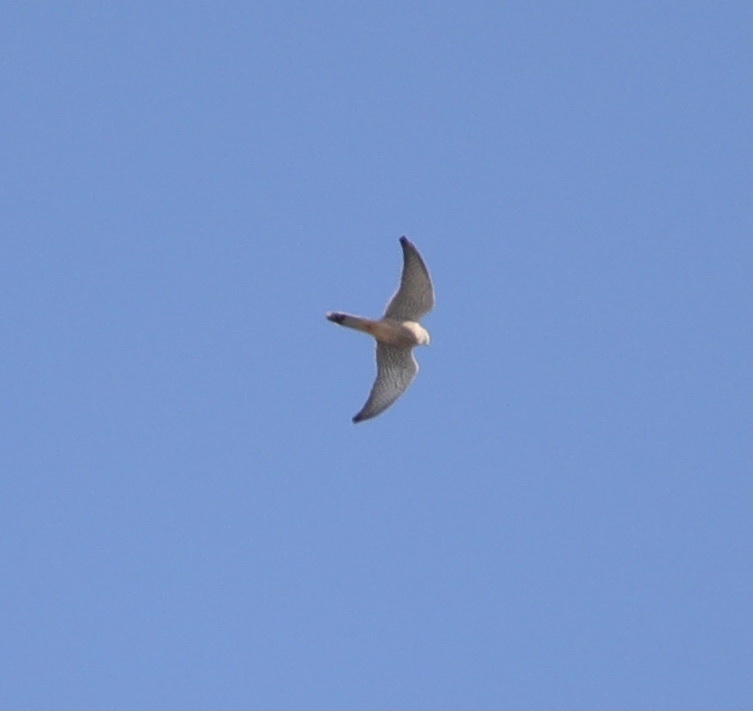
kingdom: Animalia
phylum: Chordata
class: Aves
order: Falconiformes
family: Falconidae
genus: Falco
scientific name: Falco tinnunculus
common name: Common kestrel
